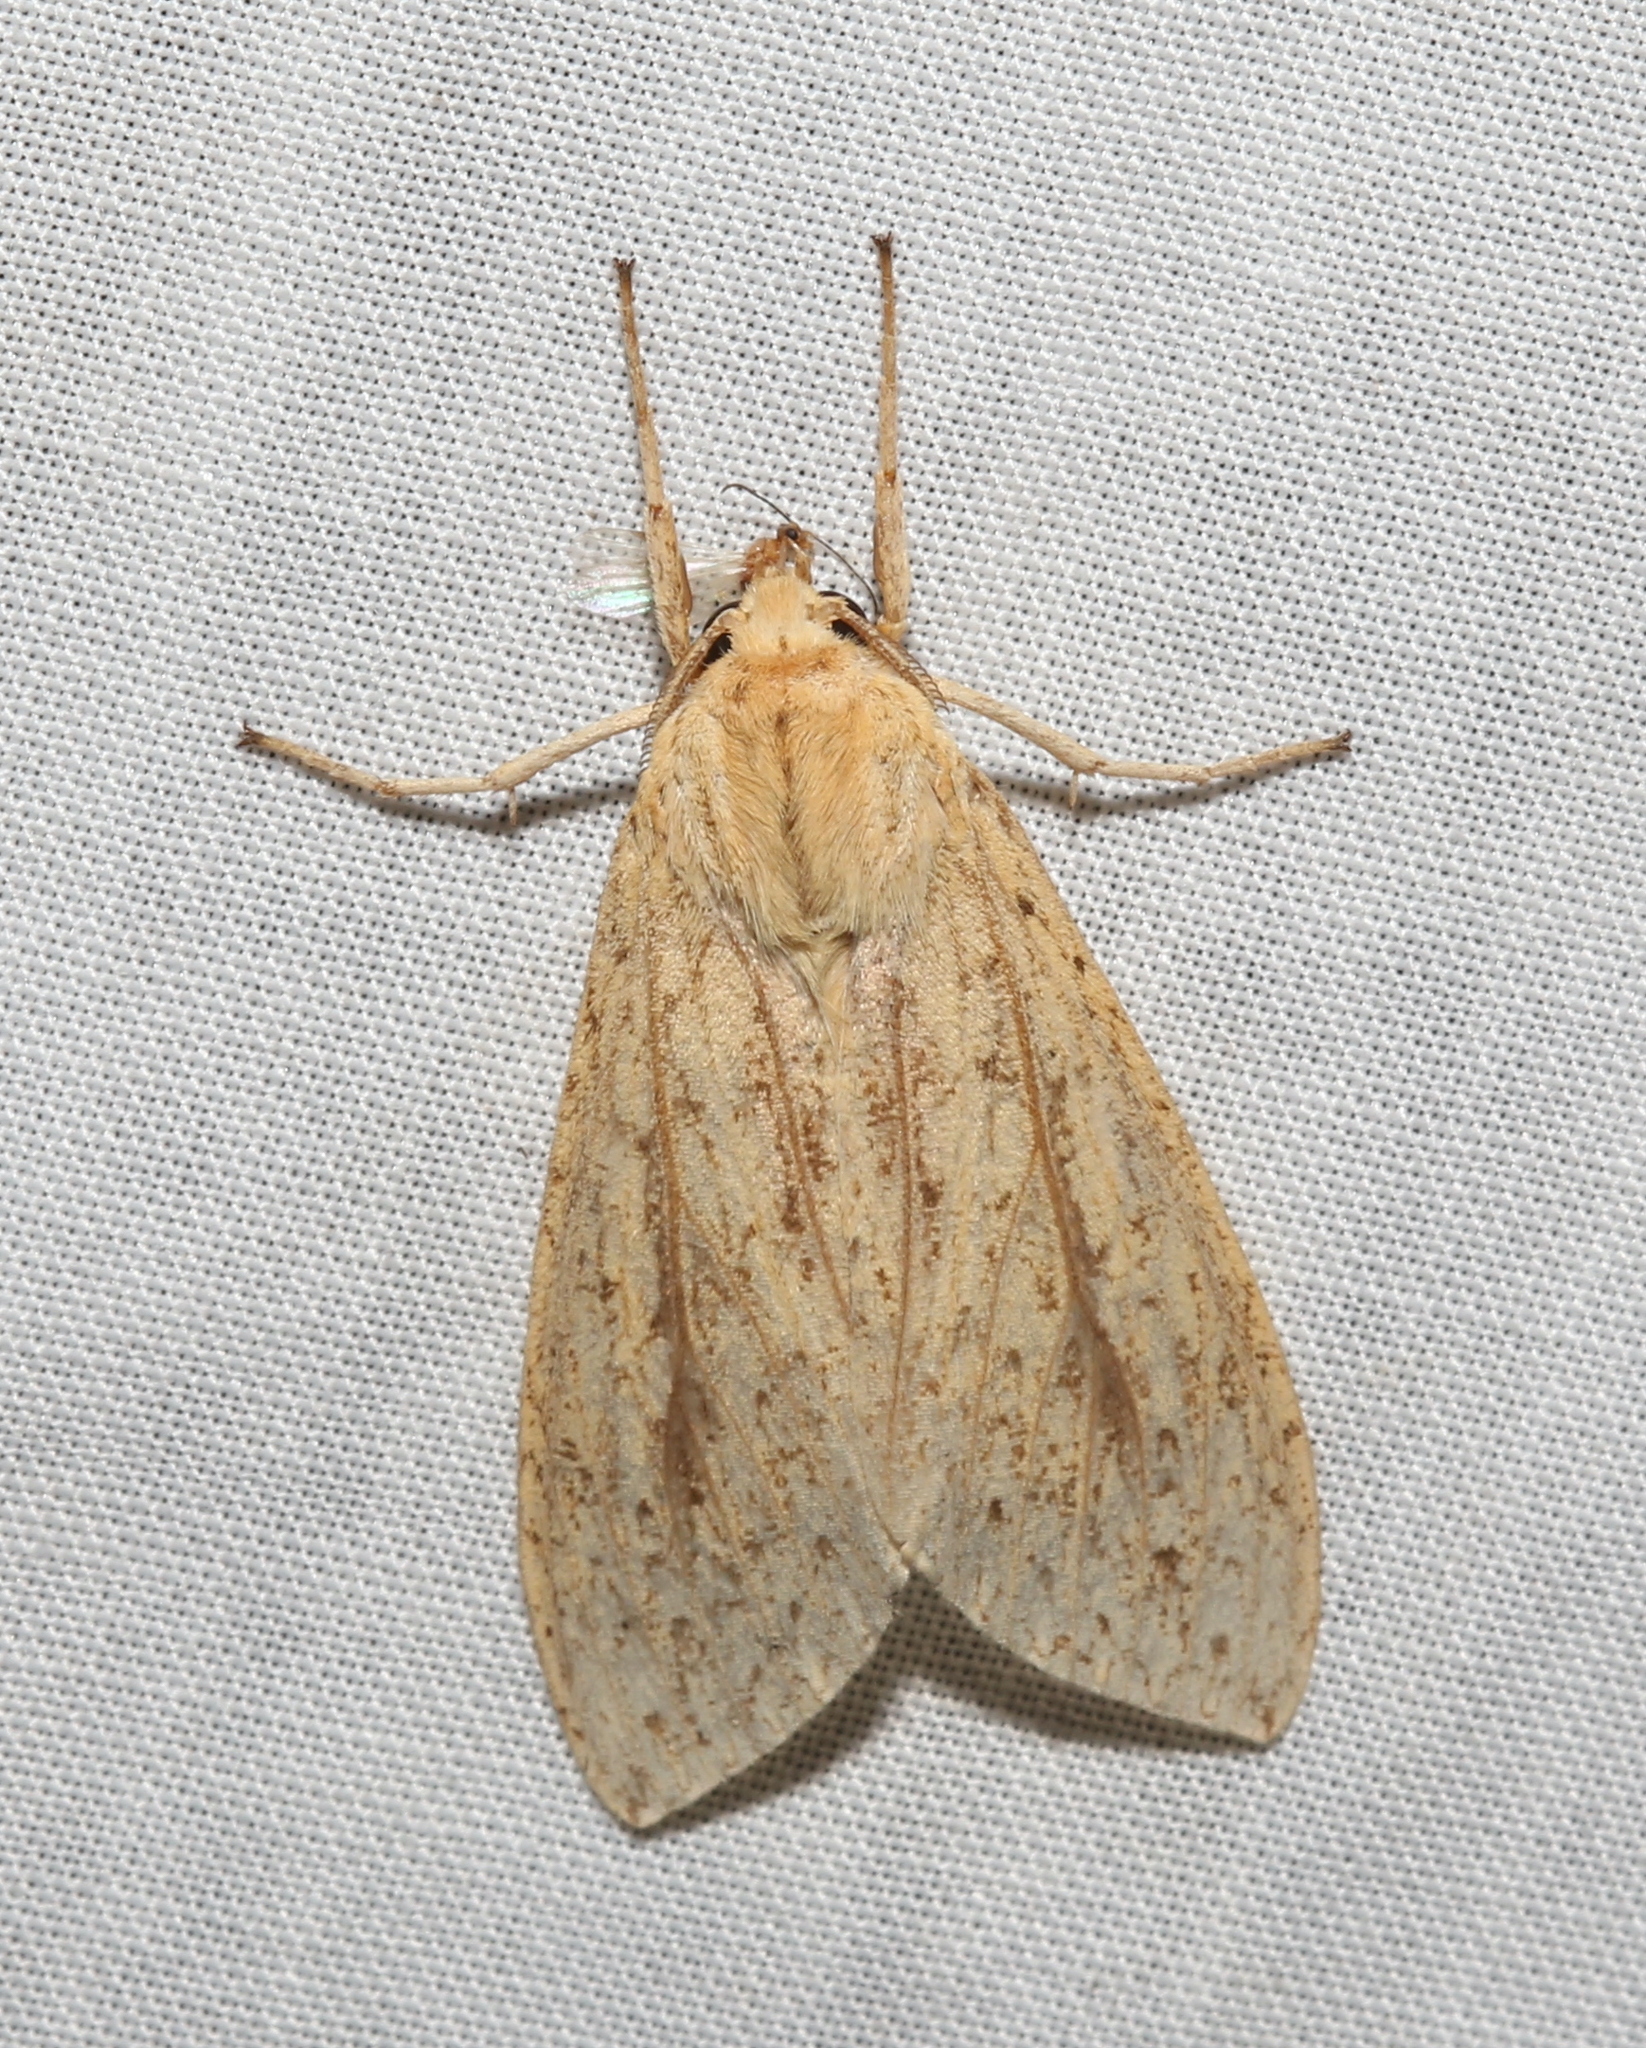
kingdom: Animalia
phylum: Arthropoda
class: Insecta
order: Lepidoptera
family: Erebidae
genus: Leucanopsis
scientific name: Leucanopsis longa
